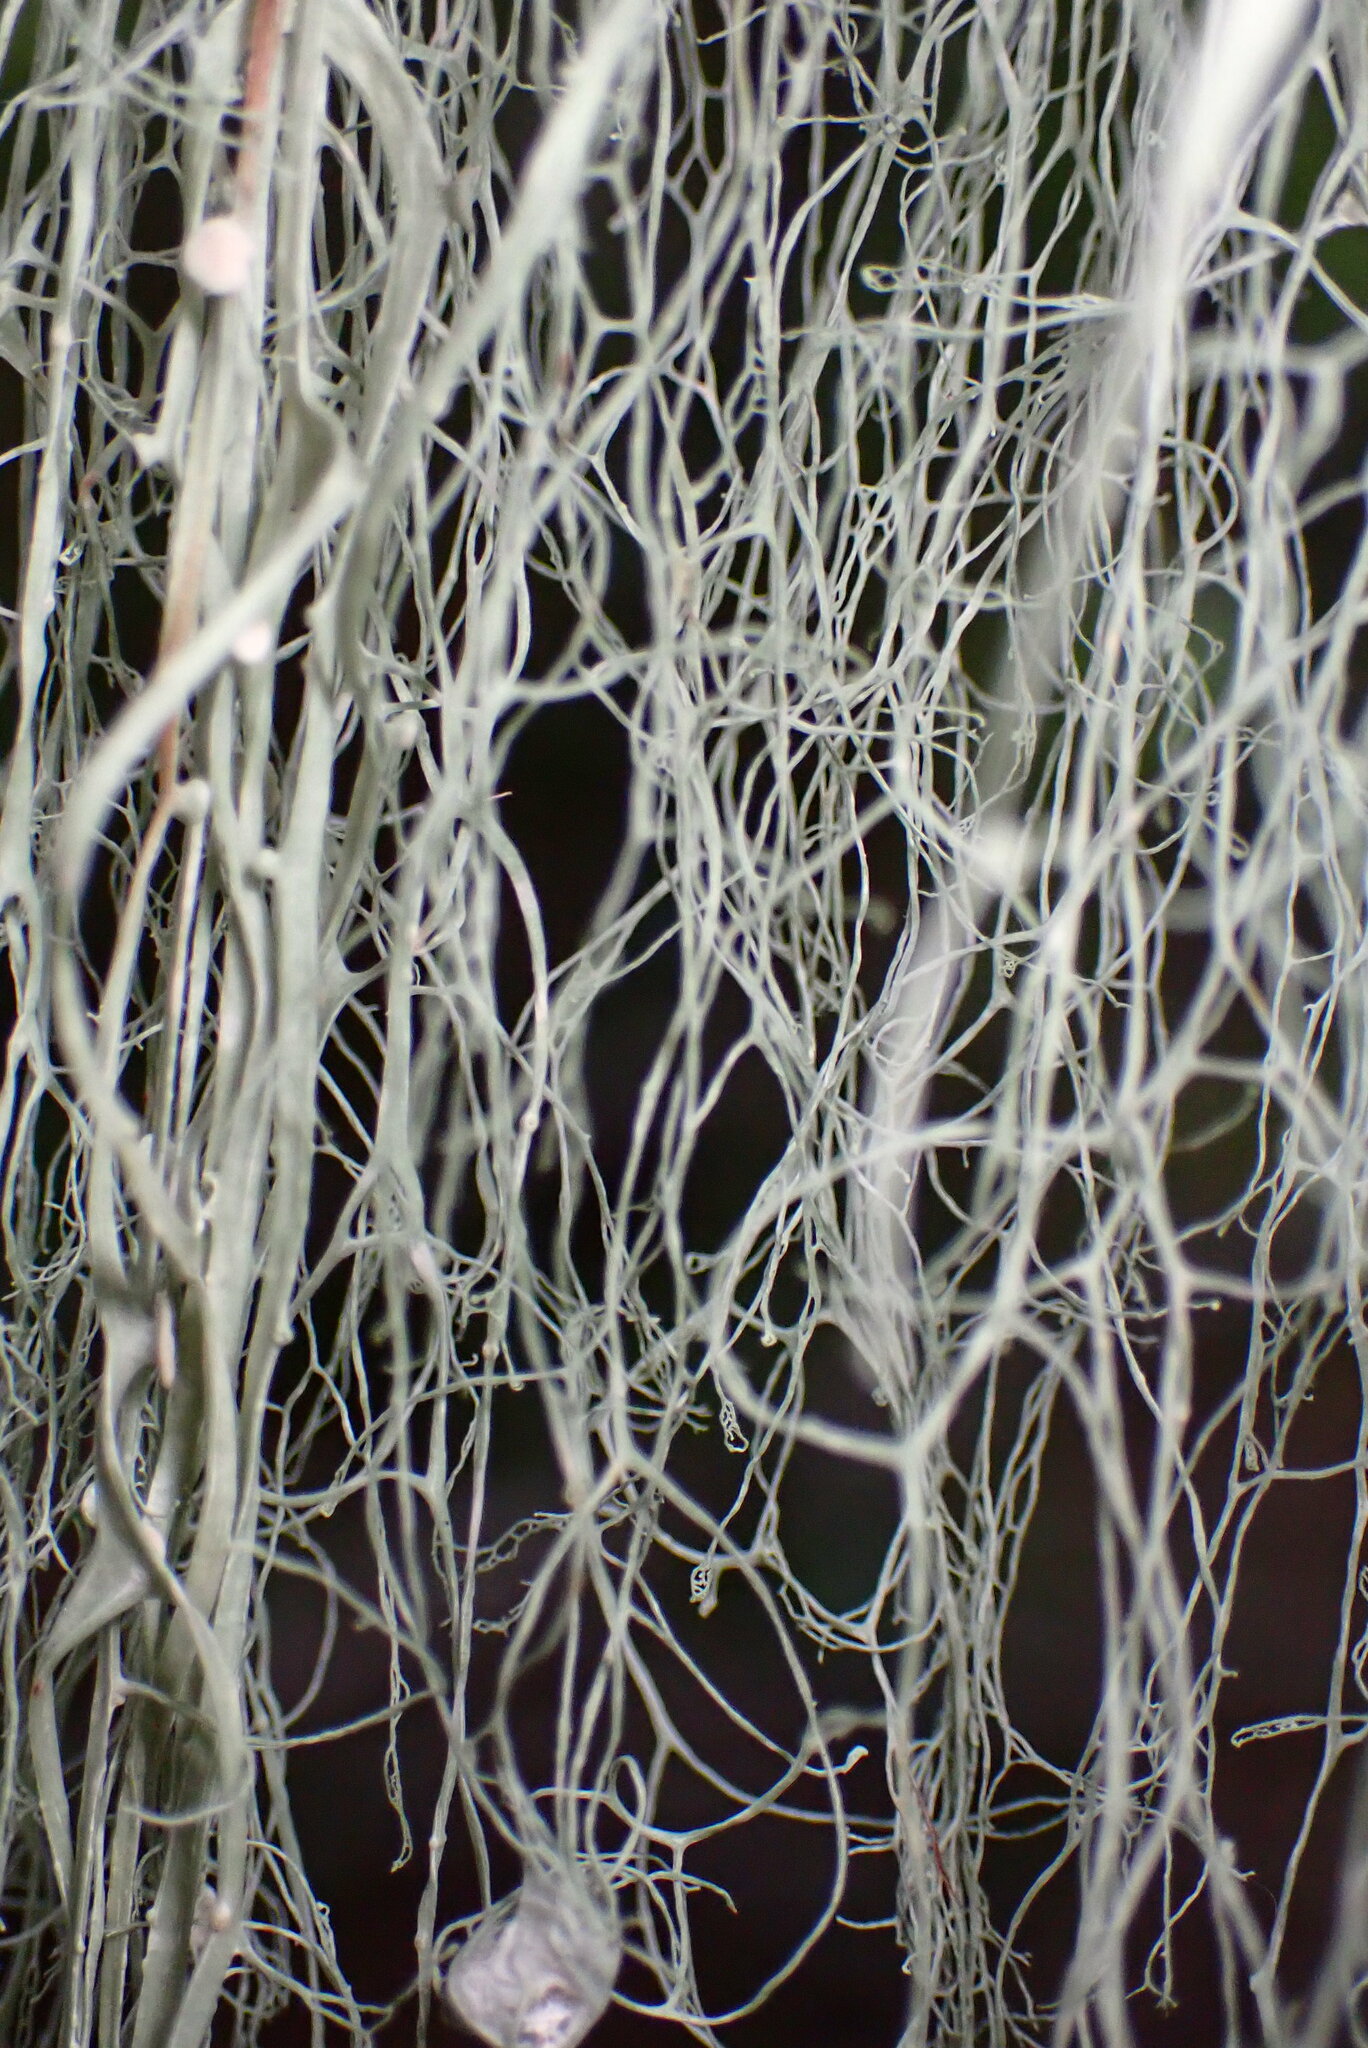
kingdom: Fungi
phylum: Ascomycota
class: Lecanoromycetes
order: Lecanorales
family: Ramalinaceae
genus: Ramalina
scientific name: Ramalina menziesii
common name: Lace lichen
